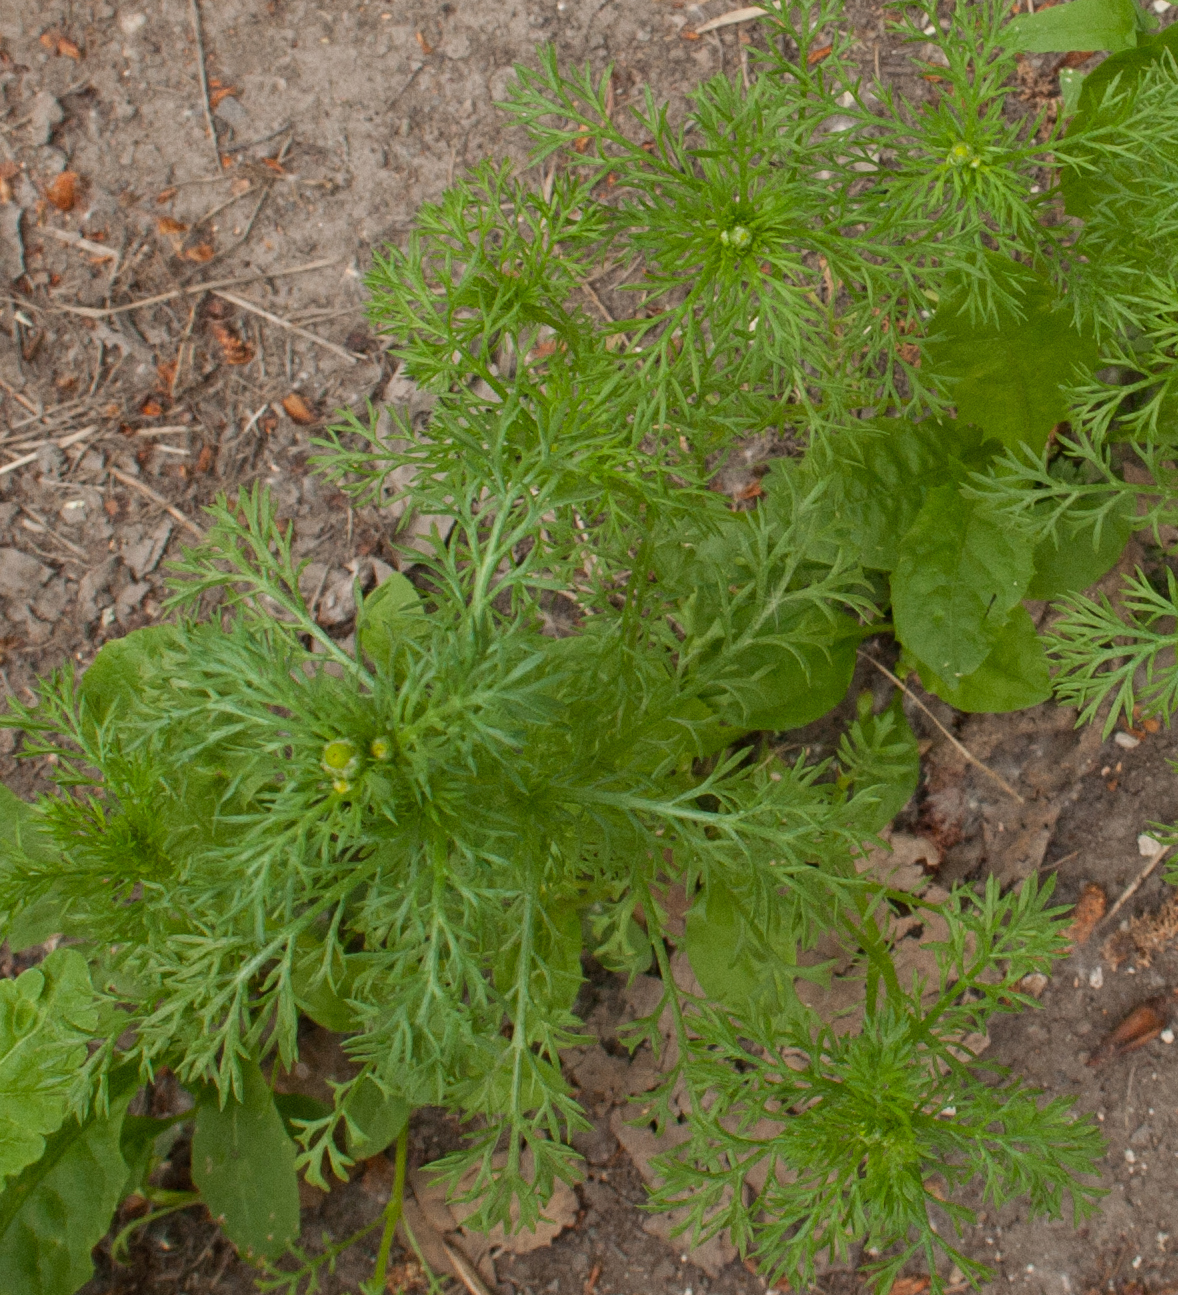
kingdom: Plantae
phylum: Tracheophyta
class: Magnoliopsida
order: Asterales
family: Asteraceae
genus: Matricaria
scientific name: Matricaria discoidea
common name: Disc mayweed
